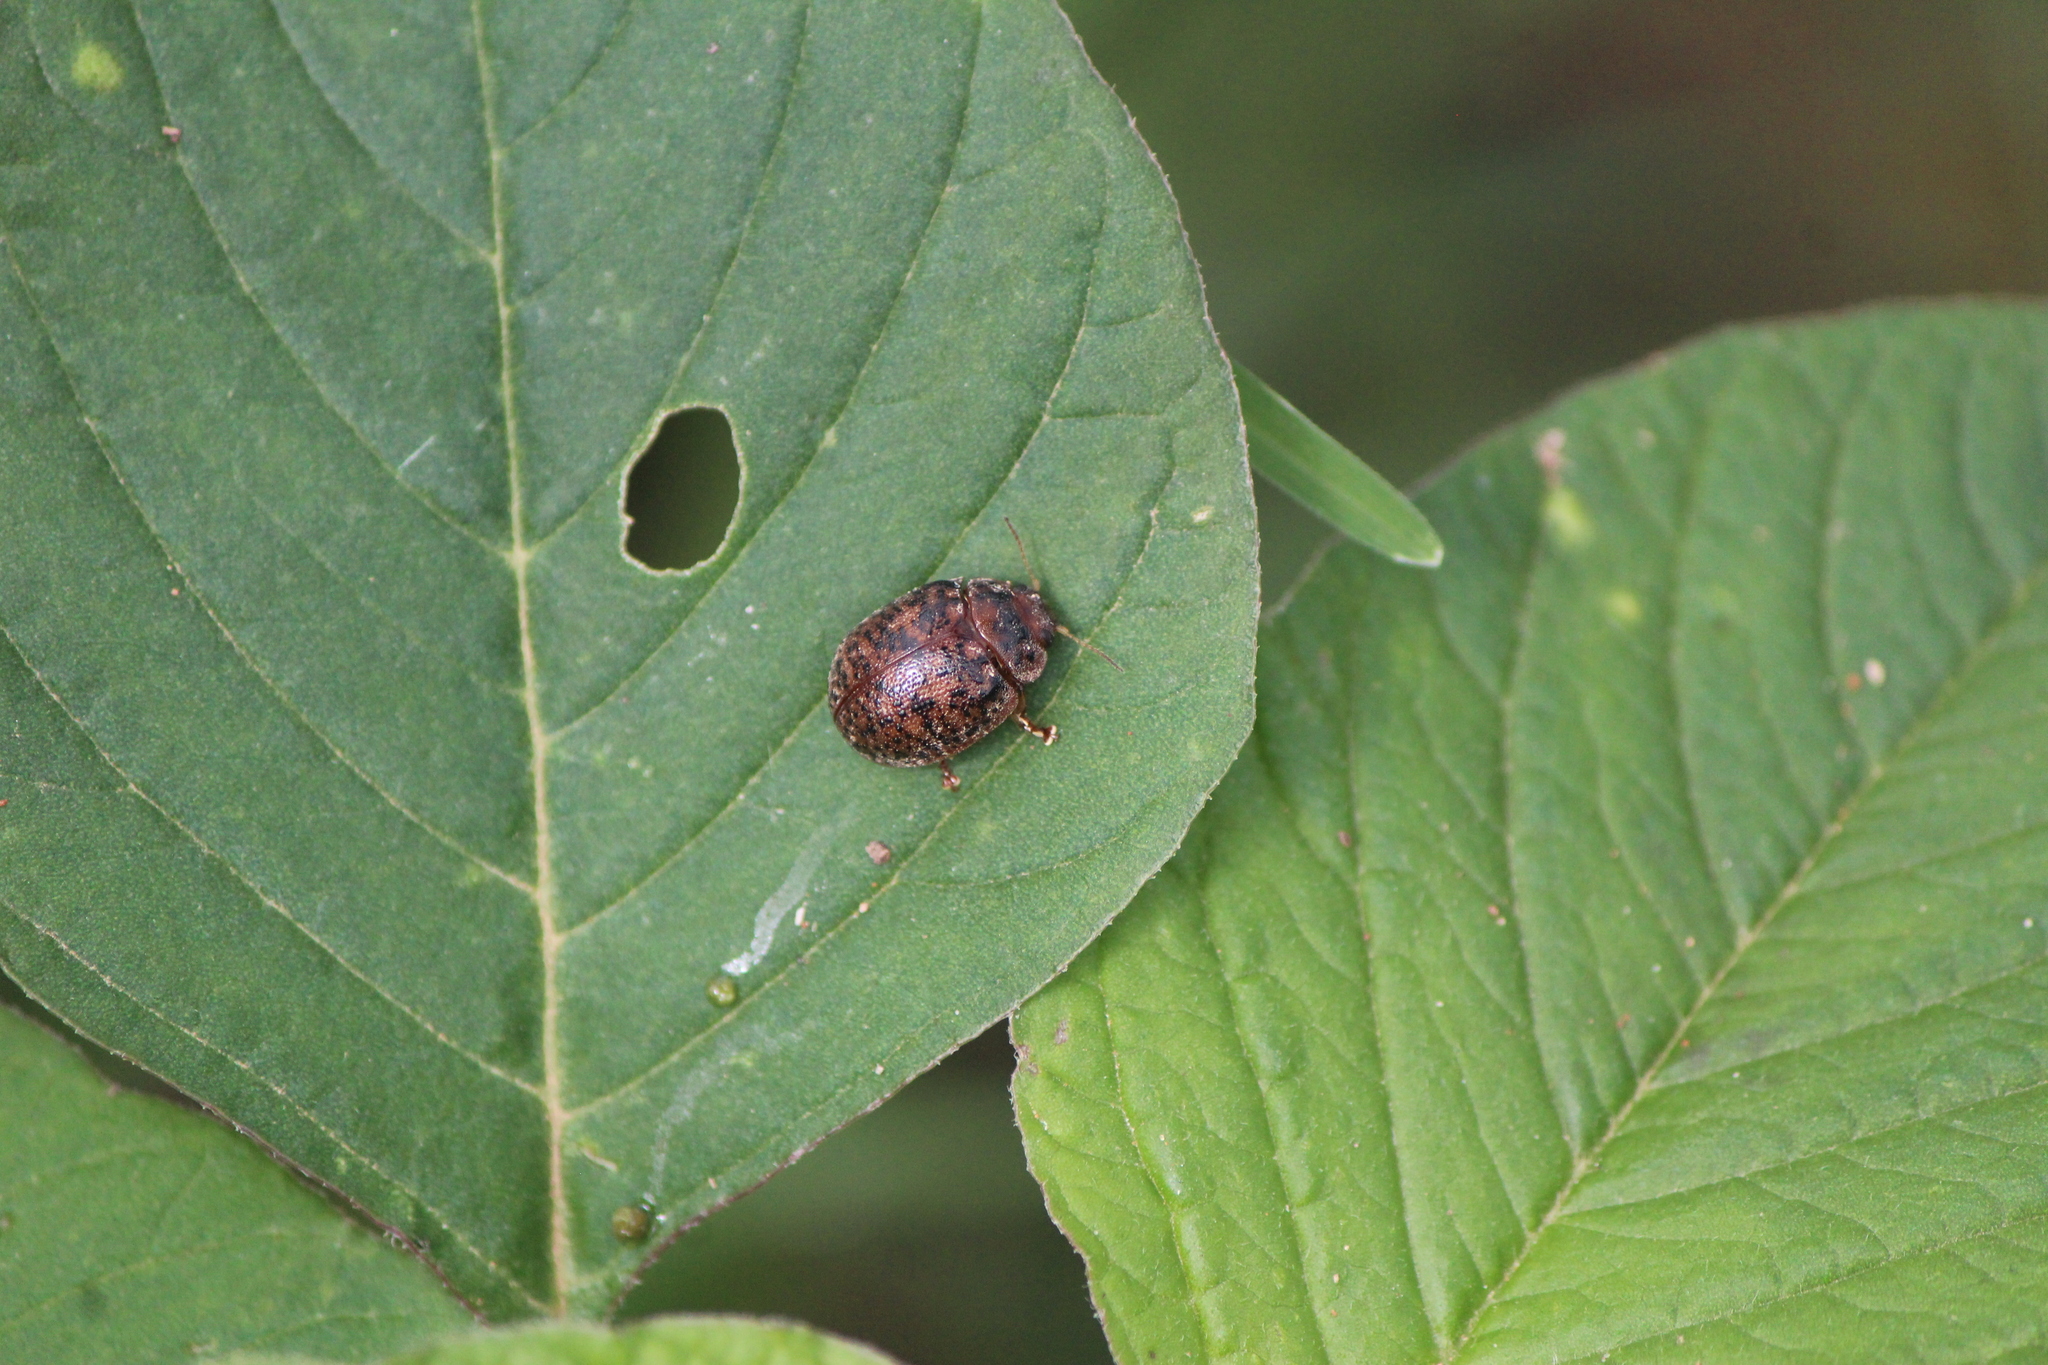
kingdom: Animalia
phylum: Arthropoda
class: Insecta
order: Coleoptera
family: Chrysomelidae
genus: Trachymela
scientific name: Trachymela sloanei
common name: Australian tortoise beetle
